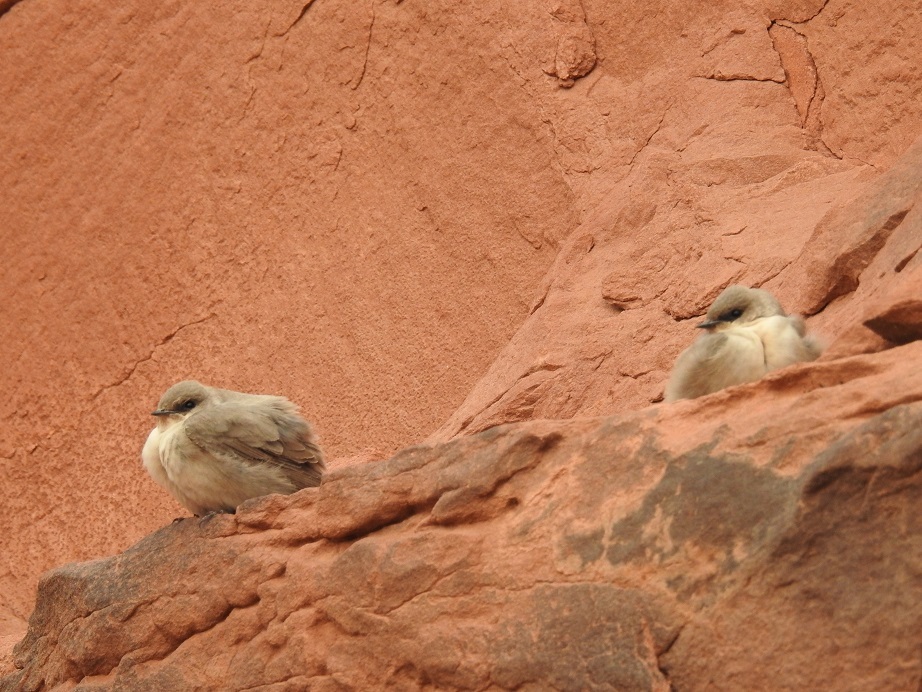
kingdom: Animalia
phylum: Chordata
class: Aves
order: Passeriformes
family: Hirundinidae
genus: Ptyonoprogne
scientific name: Ptyonoprogne rupestris
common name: Eurasian crag martin
